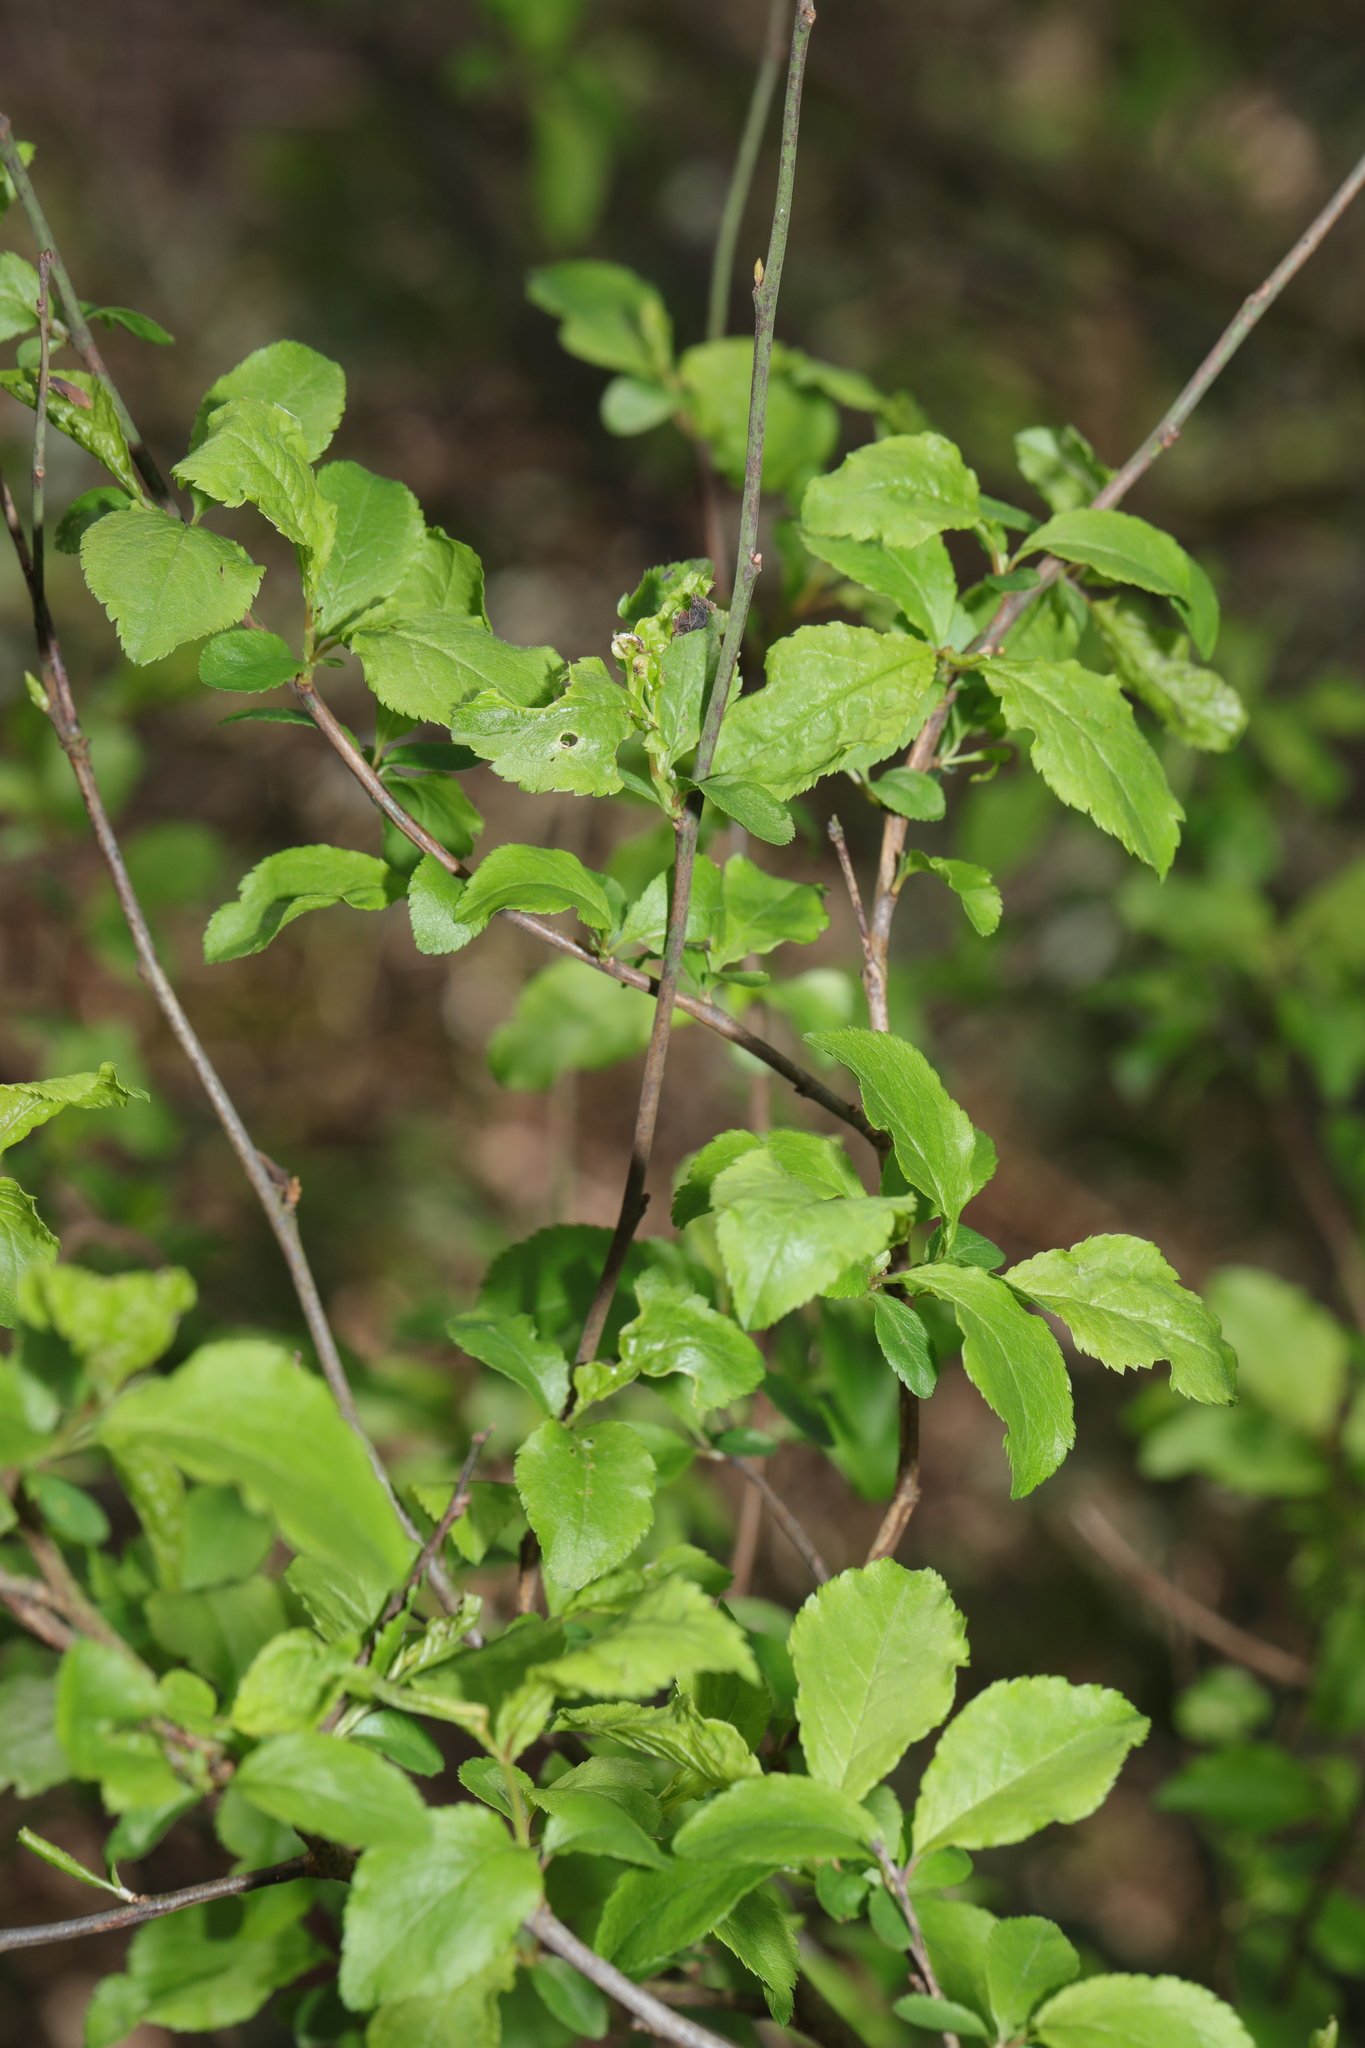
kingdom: Plantae
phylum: Tracheophyta
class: Magnoliopsida
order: Rosales
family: Rosaceae
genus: Prunus
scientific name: Prunus spinosa
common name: Blackthorn
